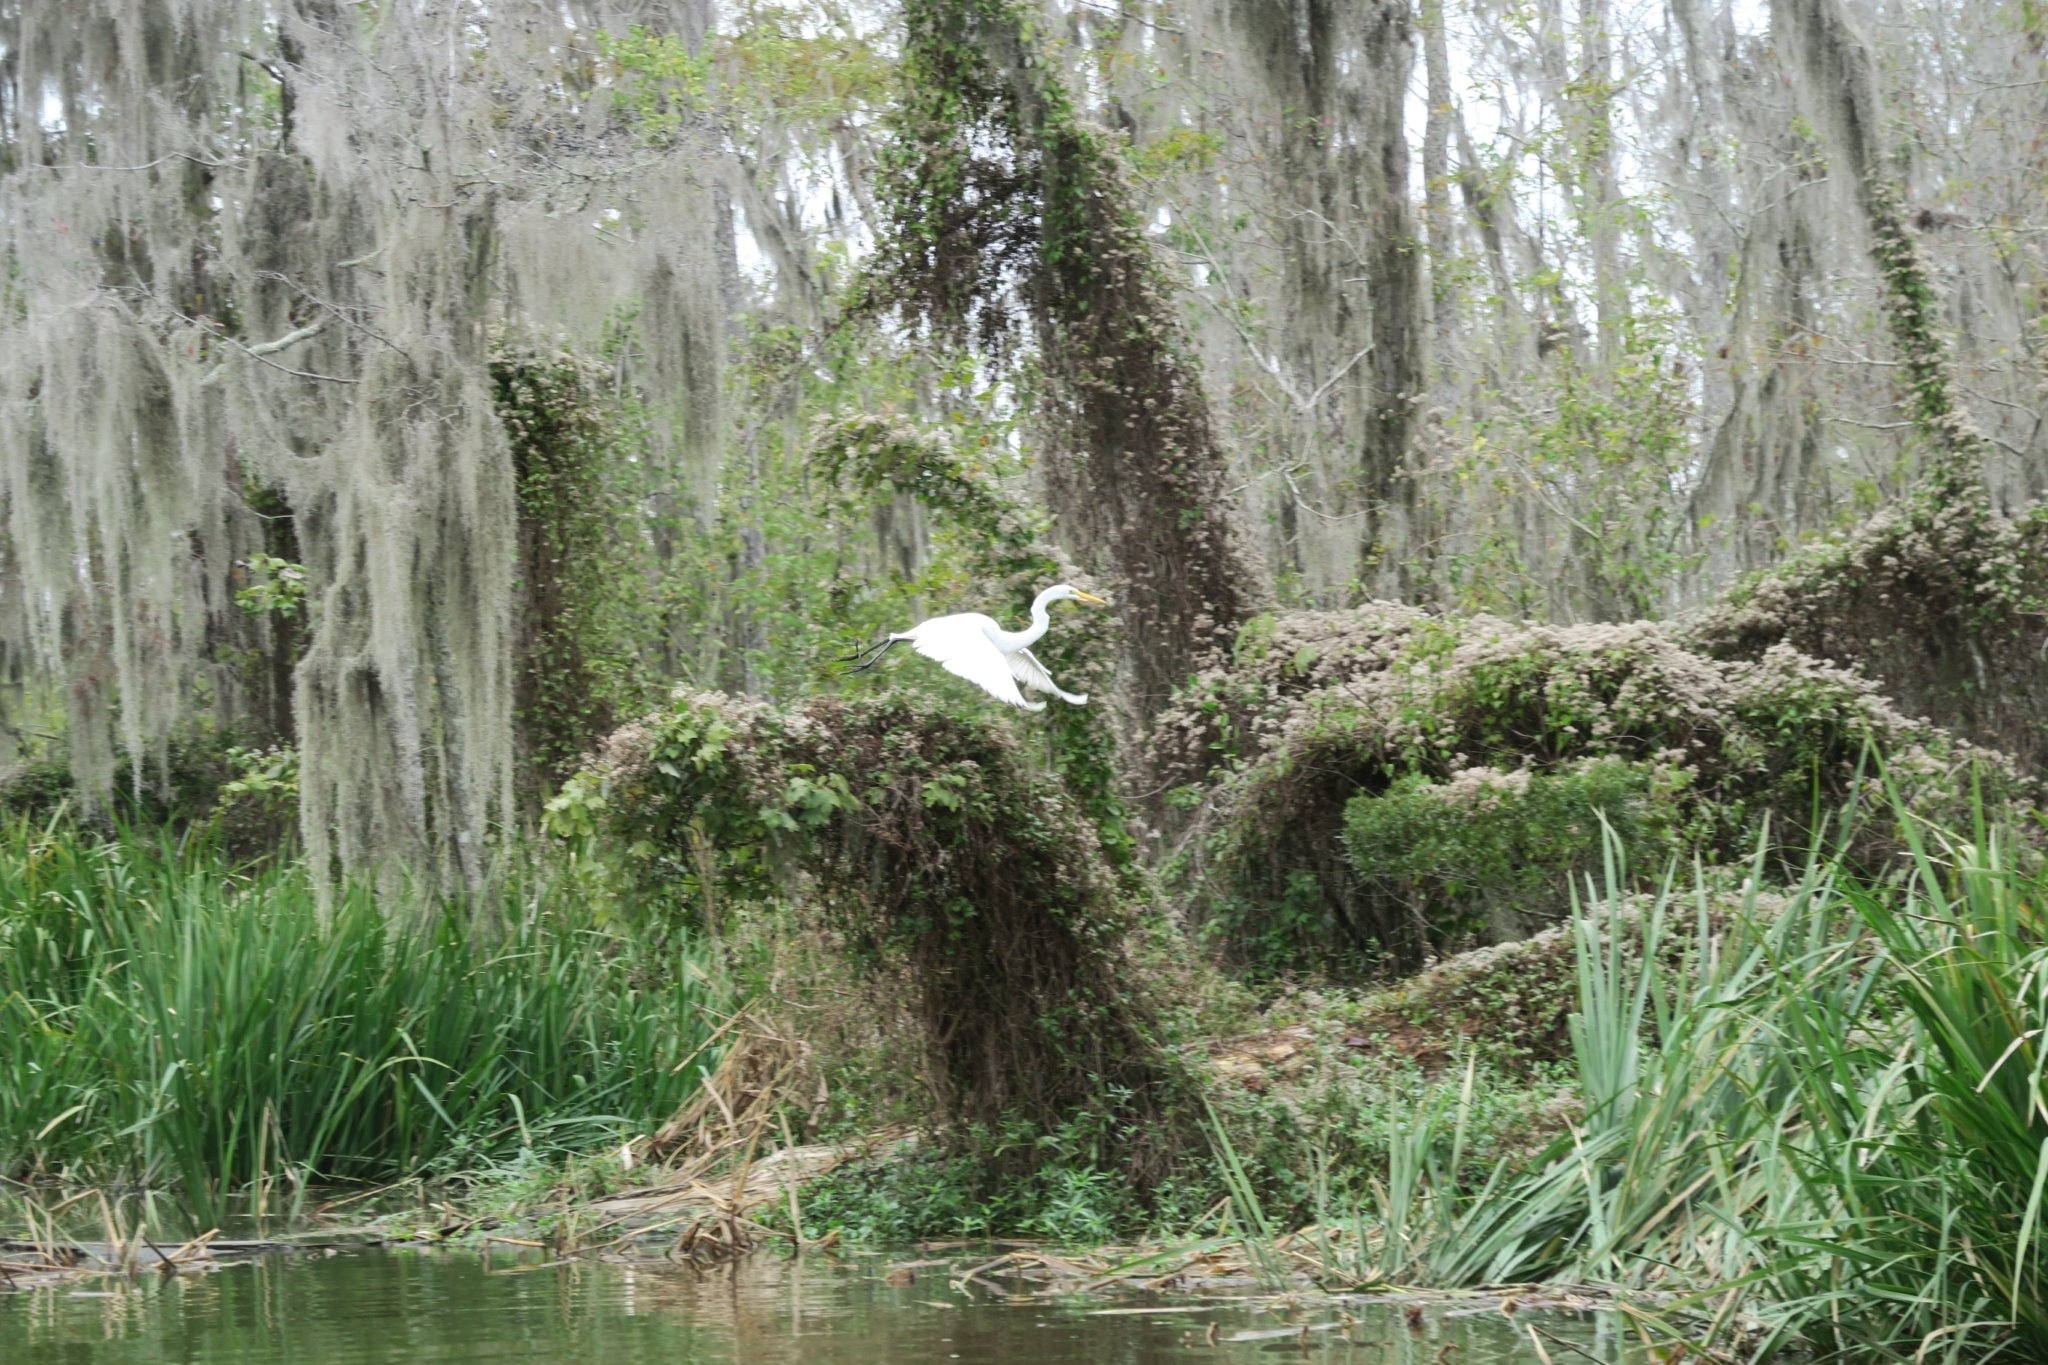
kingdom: Animalia
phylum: Chordata
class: Aves
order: Pelecaniformes
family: Ardeidae
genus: Ardea
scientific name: Ardea alba
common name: Great egret
